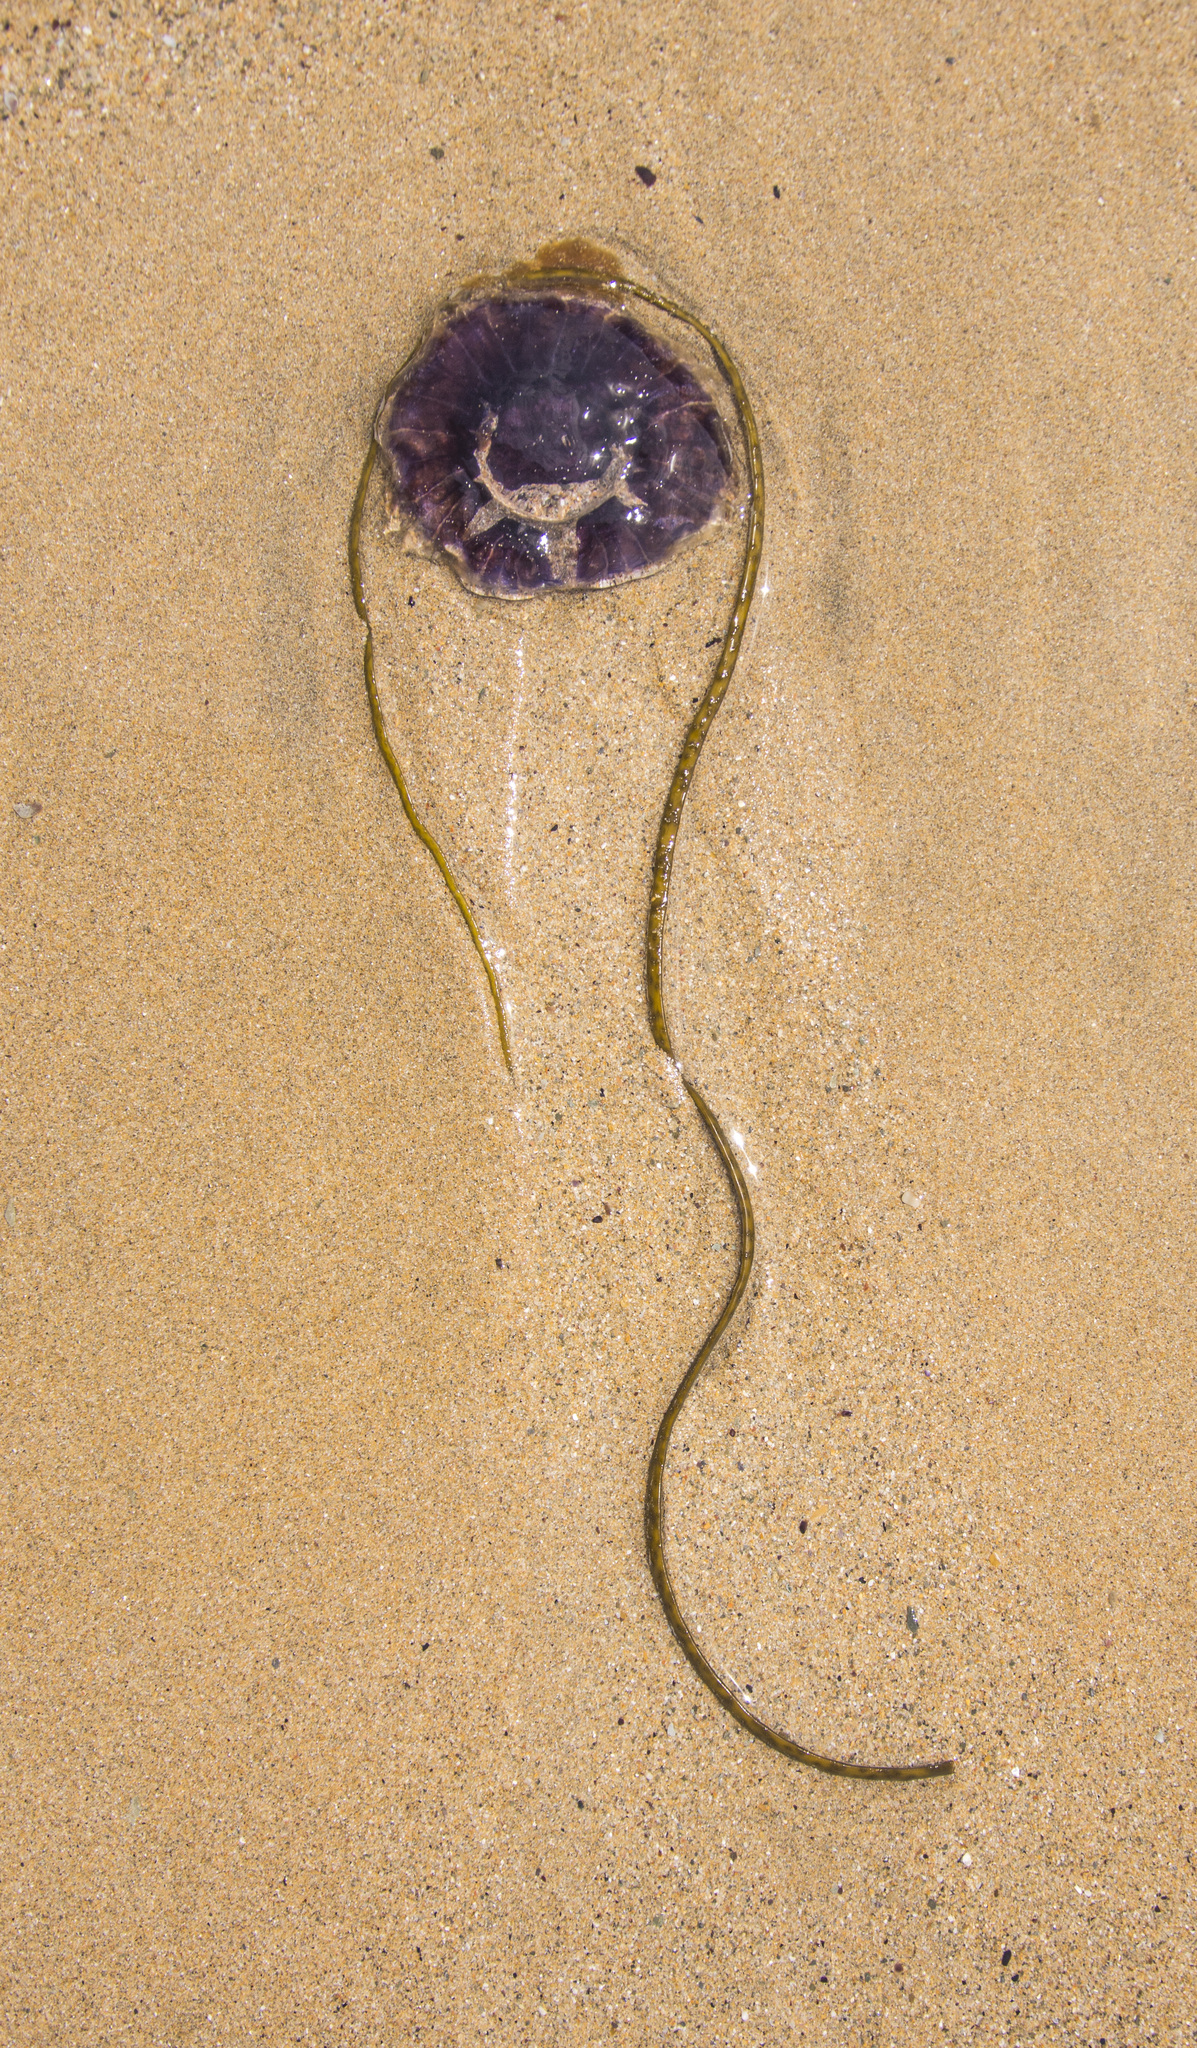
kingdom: Animalia
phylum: Cnidaria
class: Scyphozoa
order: Semaeostomeae
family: Cyaneidae
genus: Cyanea
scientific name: Cyanea lamarckii
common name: Blue jellyfish
